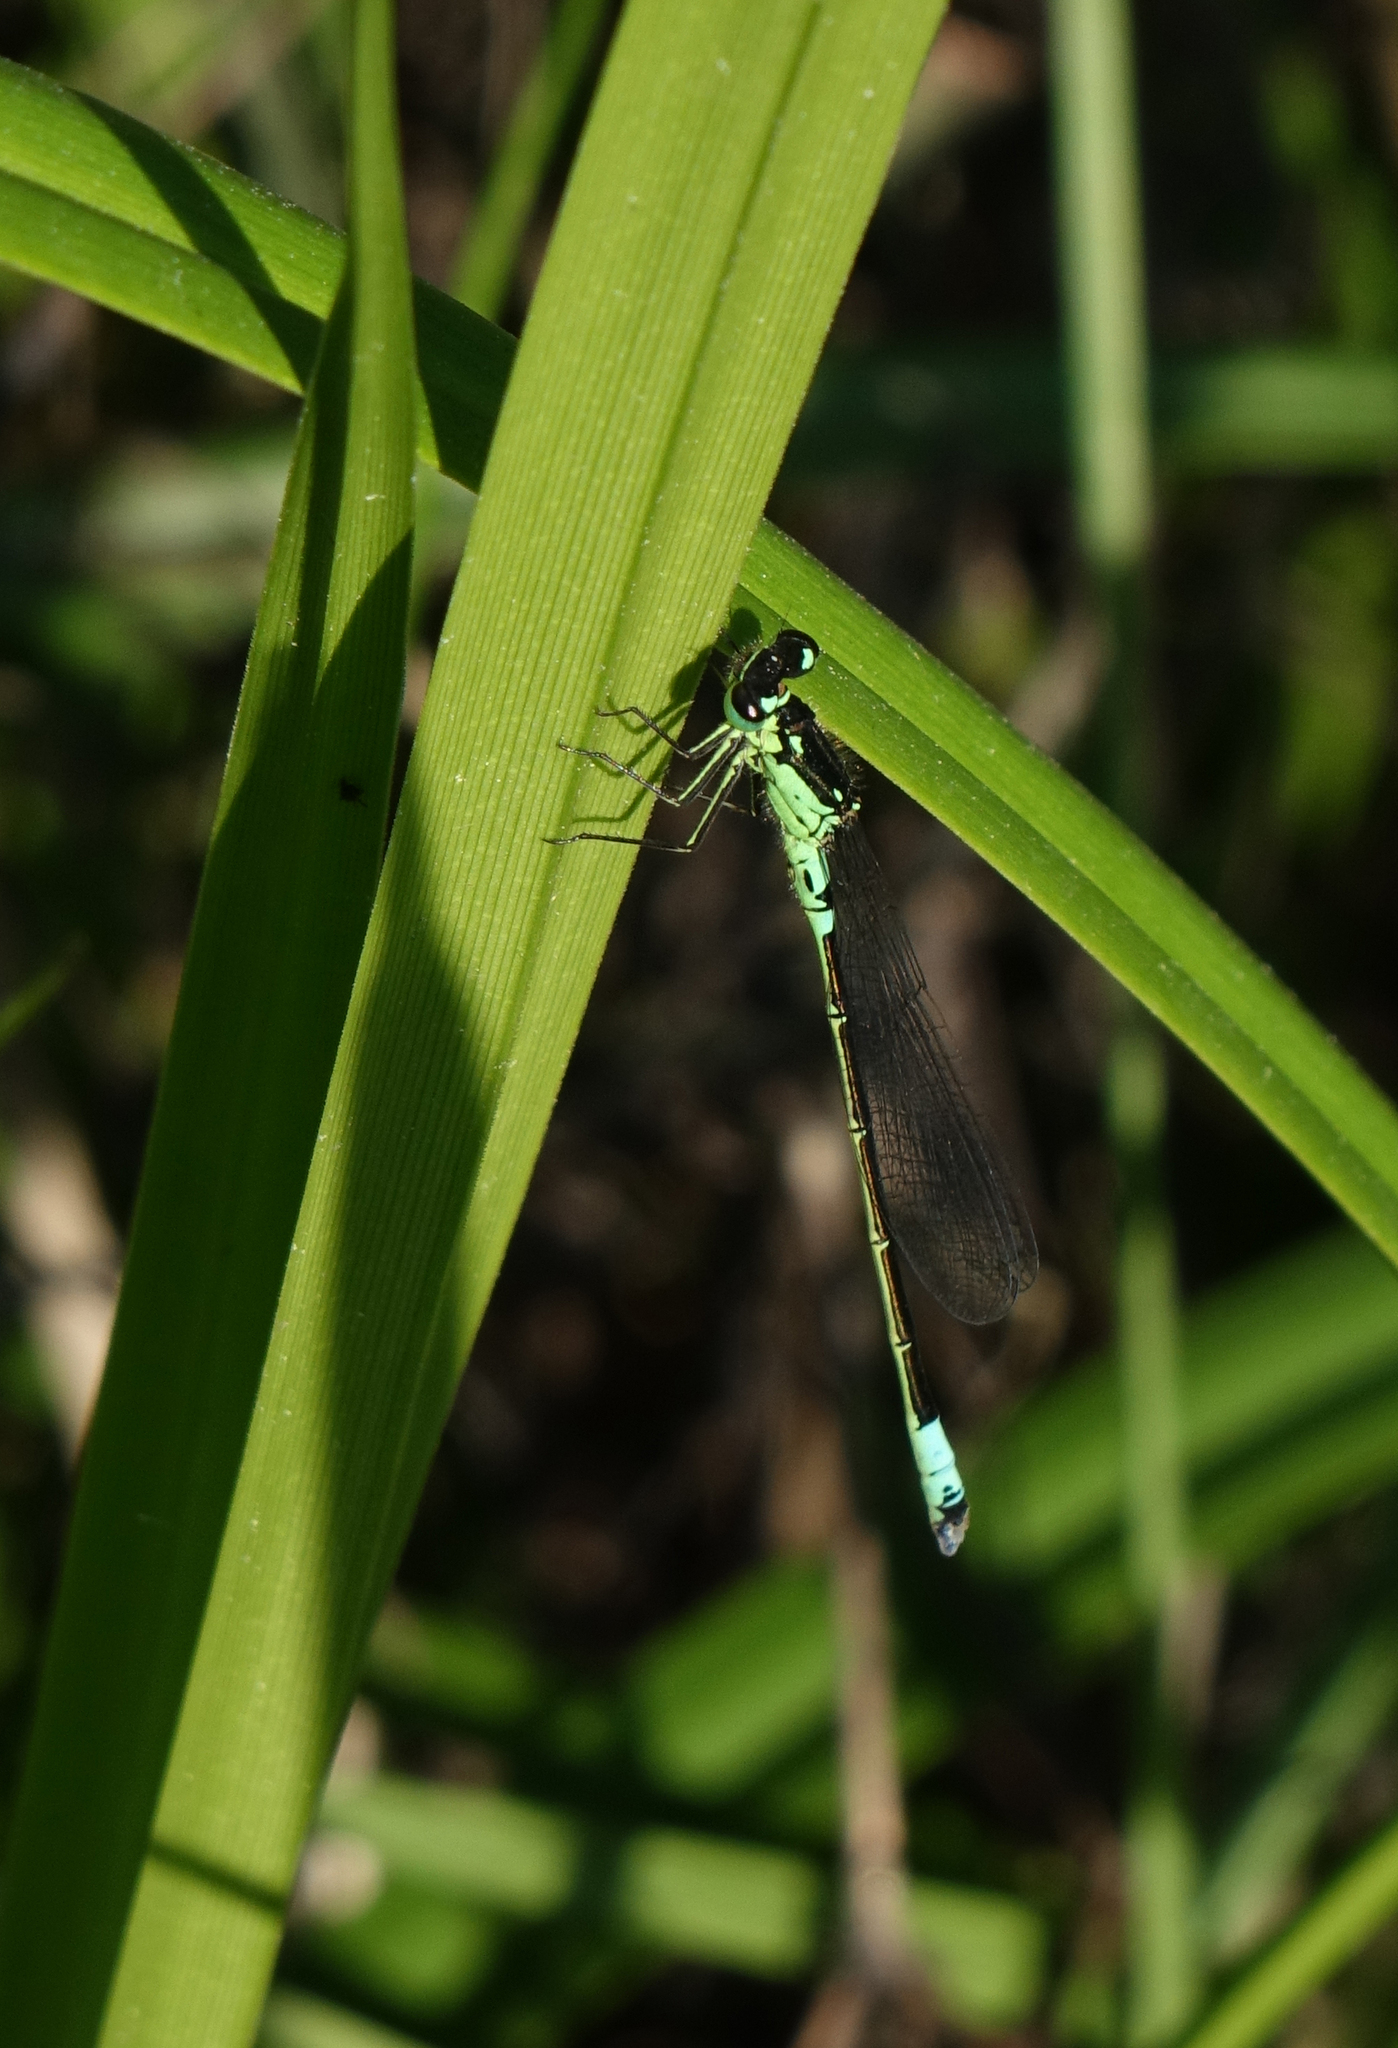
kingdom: Animalia
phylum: Arthropoda
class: Insecta
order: Odonata
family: Coenagrionidae
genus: Coenagrion
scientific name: Coenagrion armatum
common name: Dark bluet
